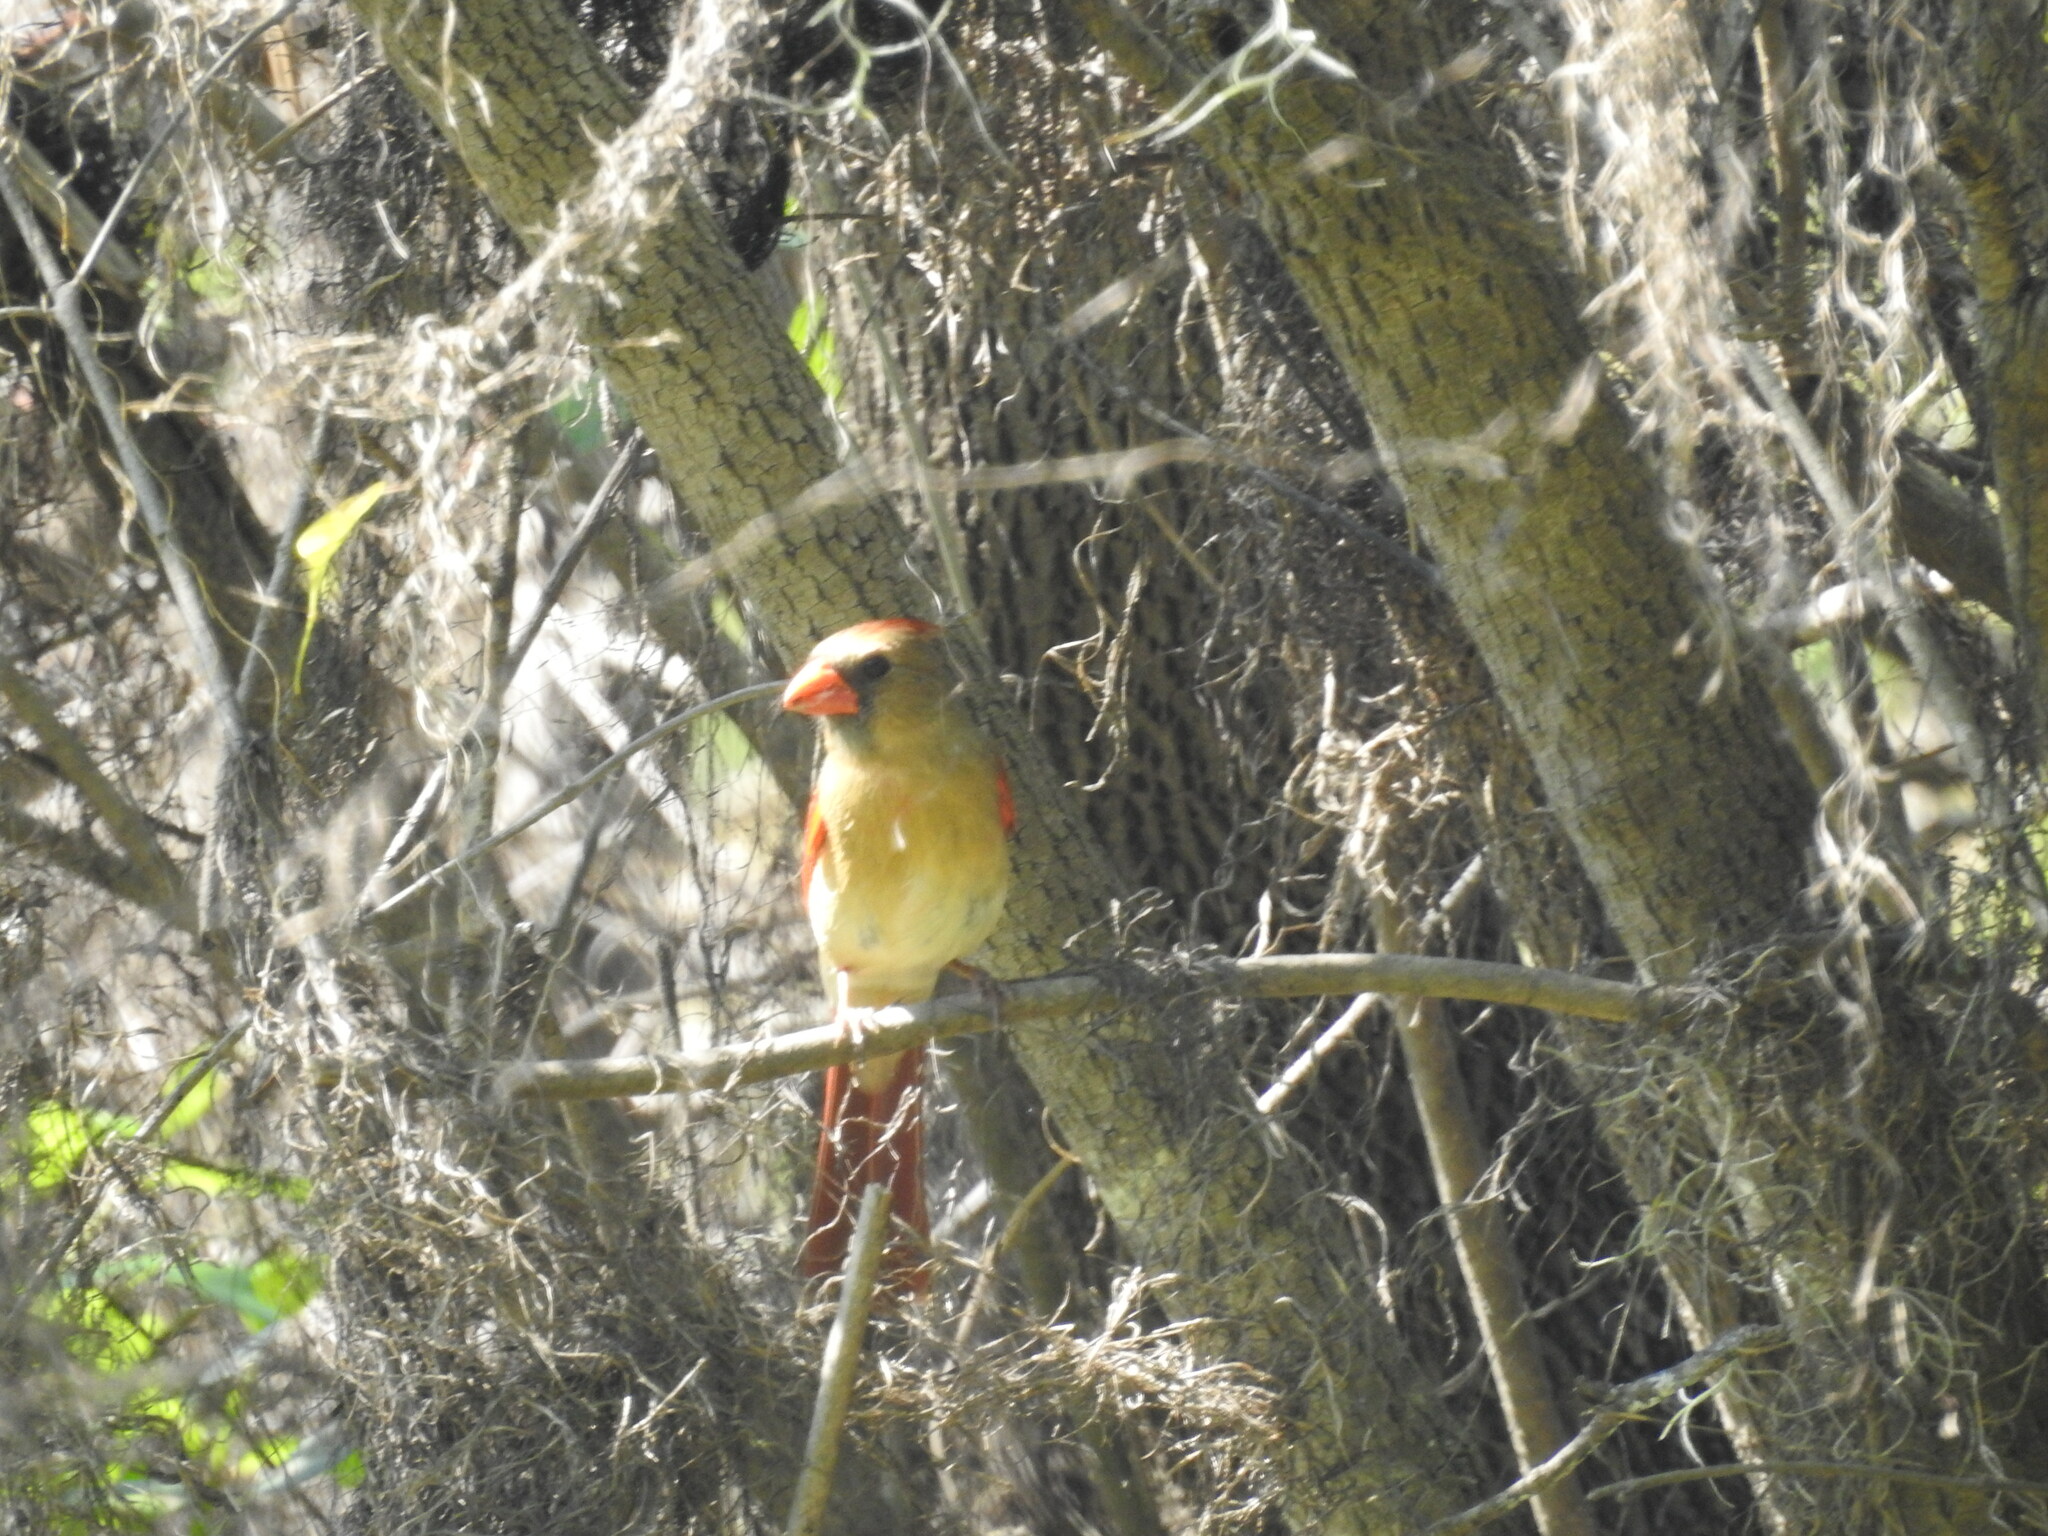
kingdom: Animalia
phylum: Chordata
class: Aves
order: Passeriformes
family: Cardinalidae
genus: Cardinalis
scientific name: Cardinalis cardinalis
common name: Northern cardinal
